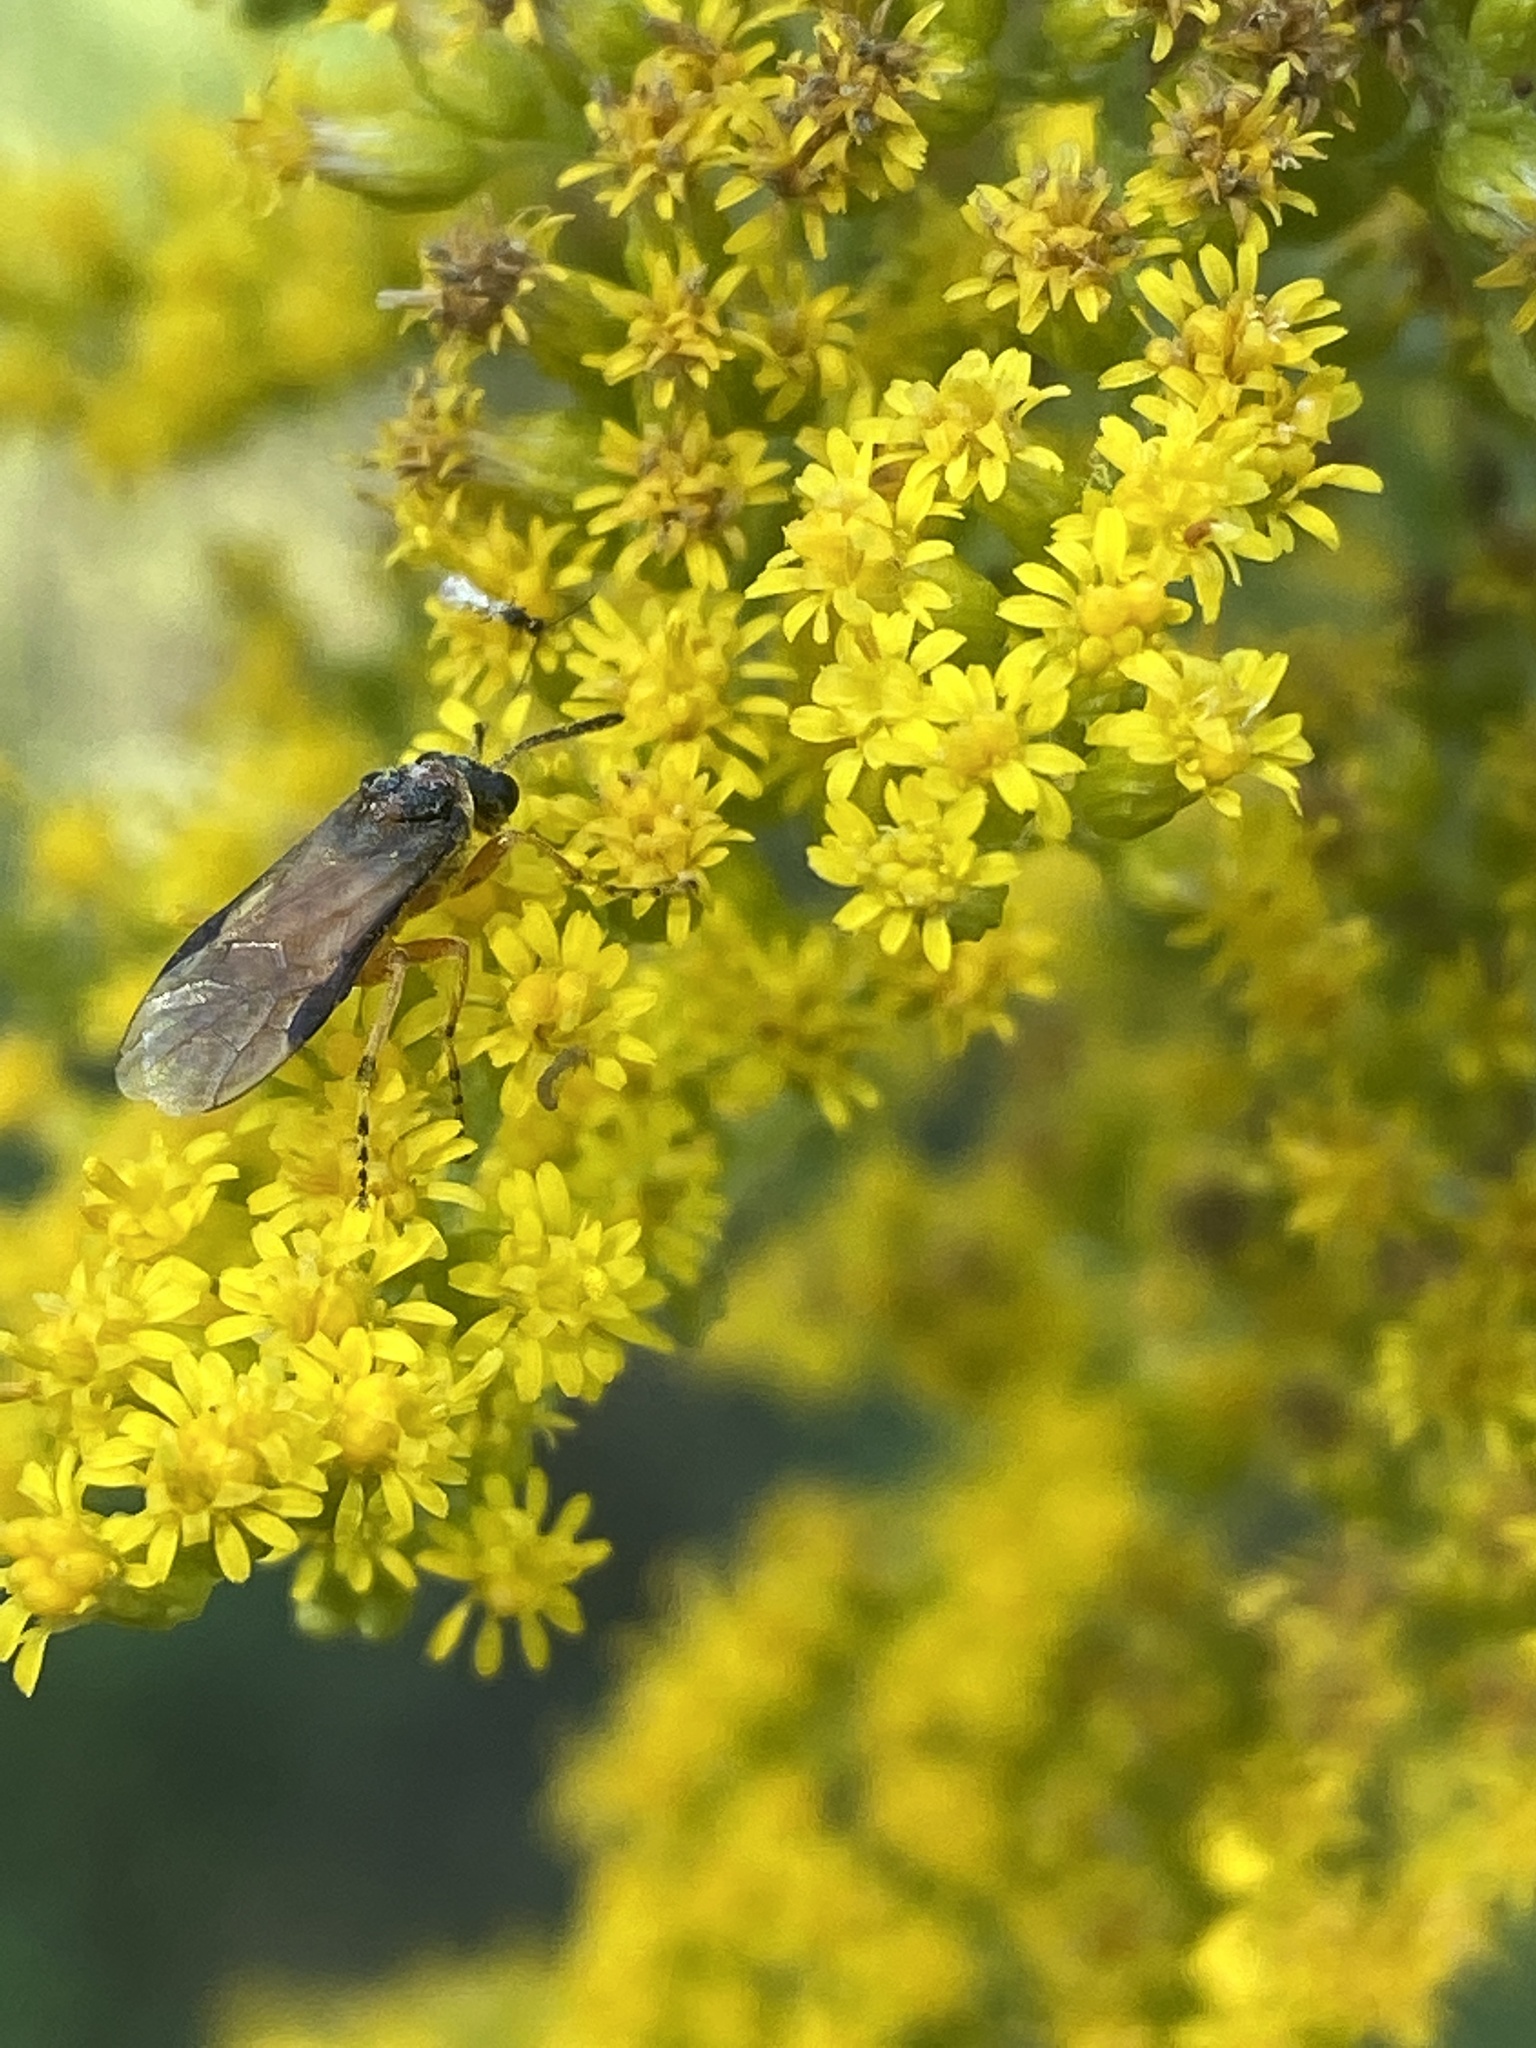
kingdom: Animalia
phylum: Arthropoda
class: Insecta
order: Hymenoptera
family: Tenthredinidae
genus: Athalia
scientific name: Athalia rosae
